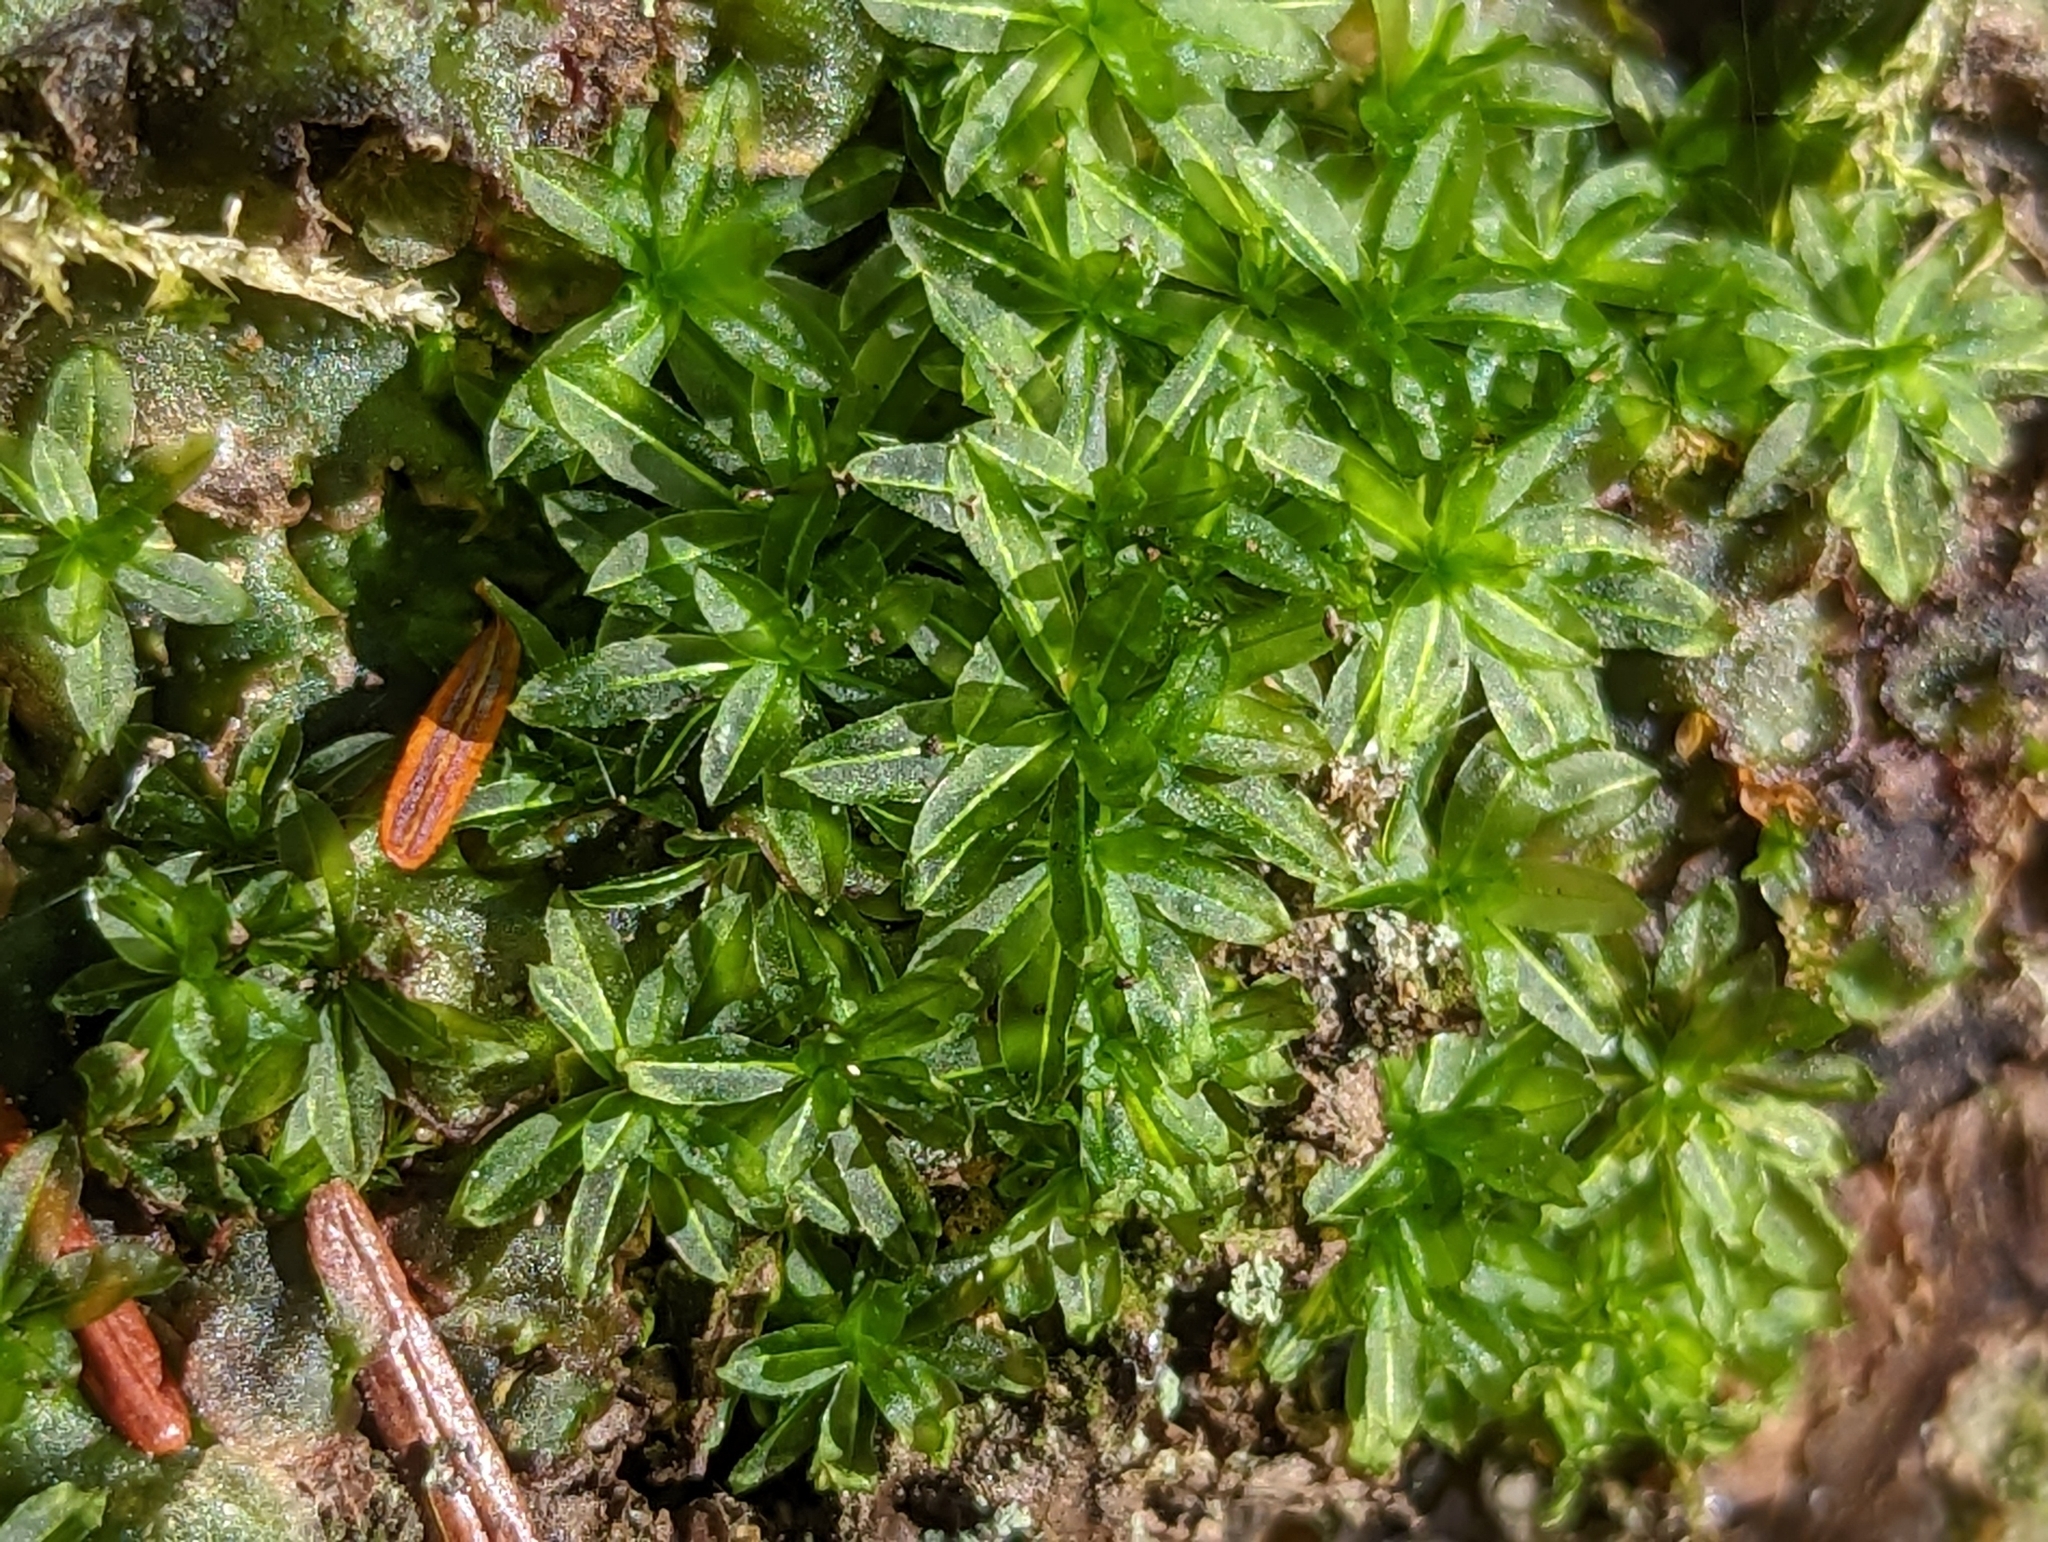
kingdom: Plantae
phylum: Bryophyta
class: Polytrichopsida
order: Polytrichales
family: Polytrichaceae
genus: Atrichum
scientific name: Atrichum crispum
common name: Fountain smoothcap
